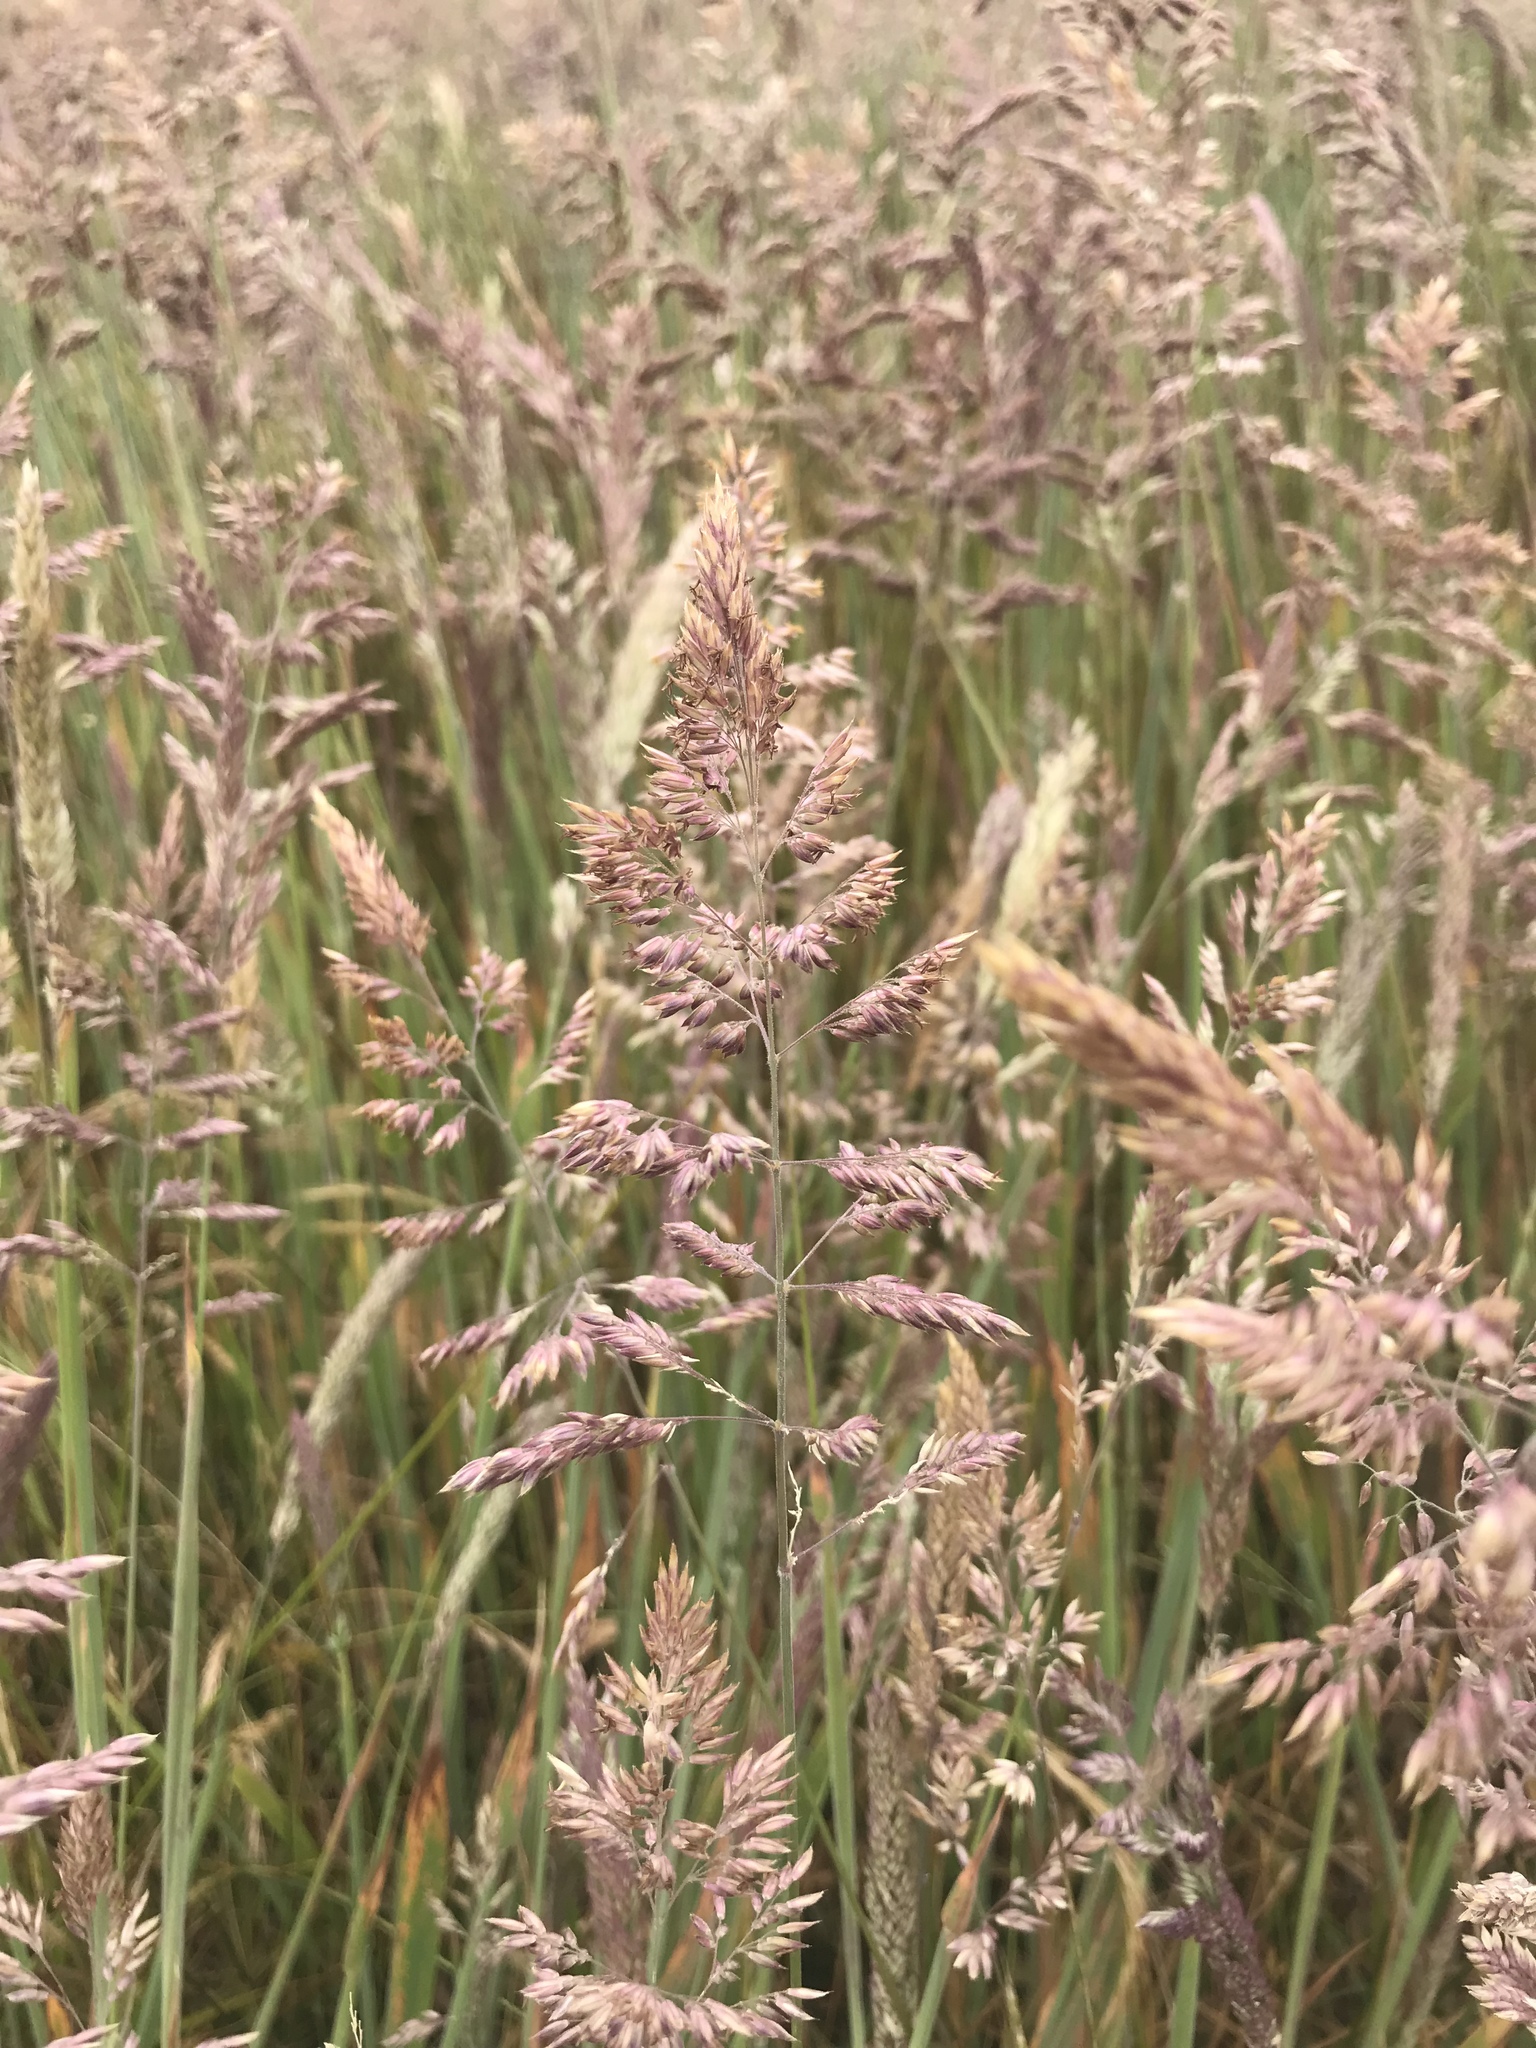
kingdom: Plantae
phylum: Tracheophyta
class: Liliopsida
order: Poales
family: Poaceae
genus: Holcus
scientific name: Holcus lanatus
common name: Yorkshire-fog
